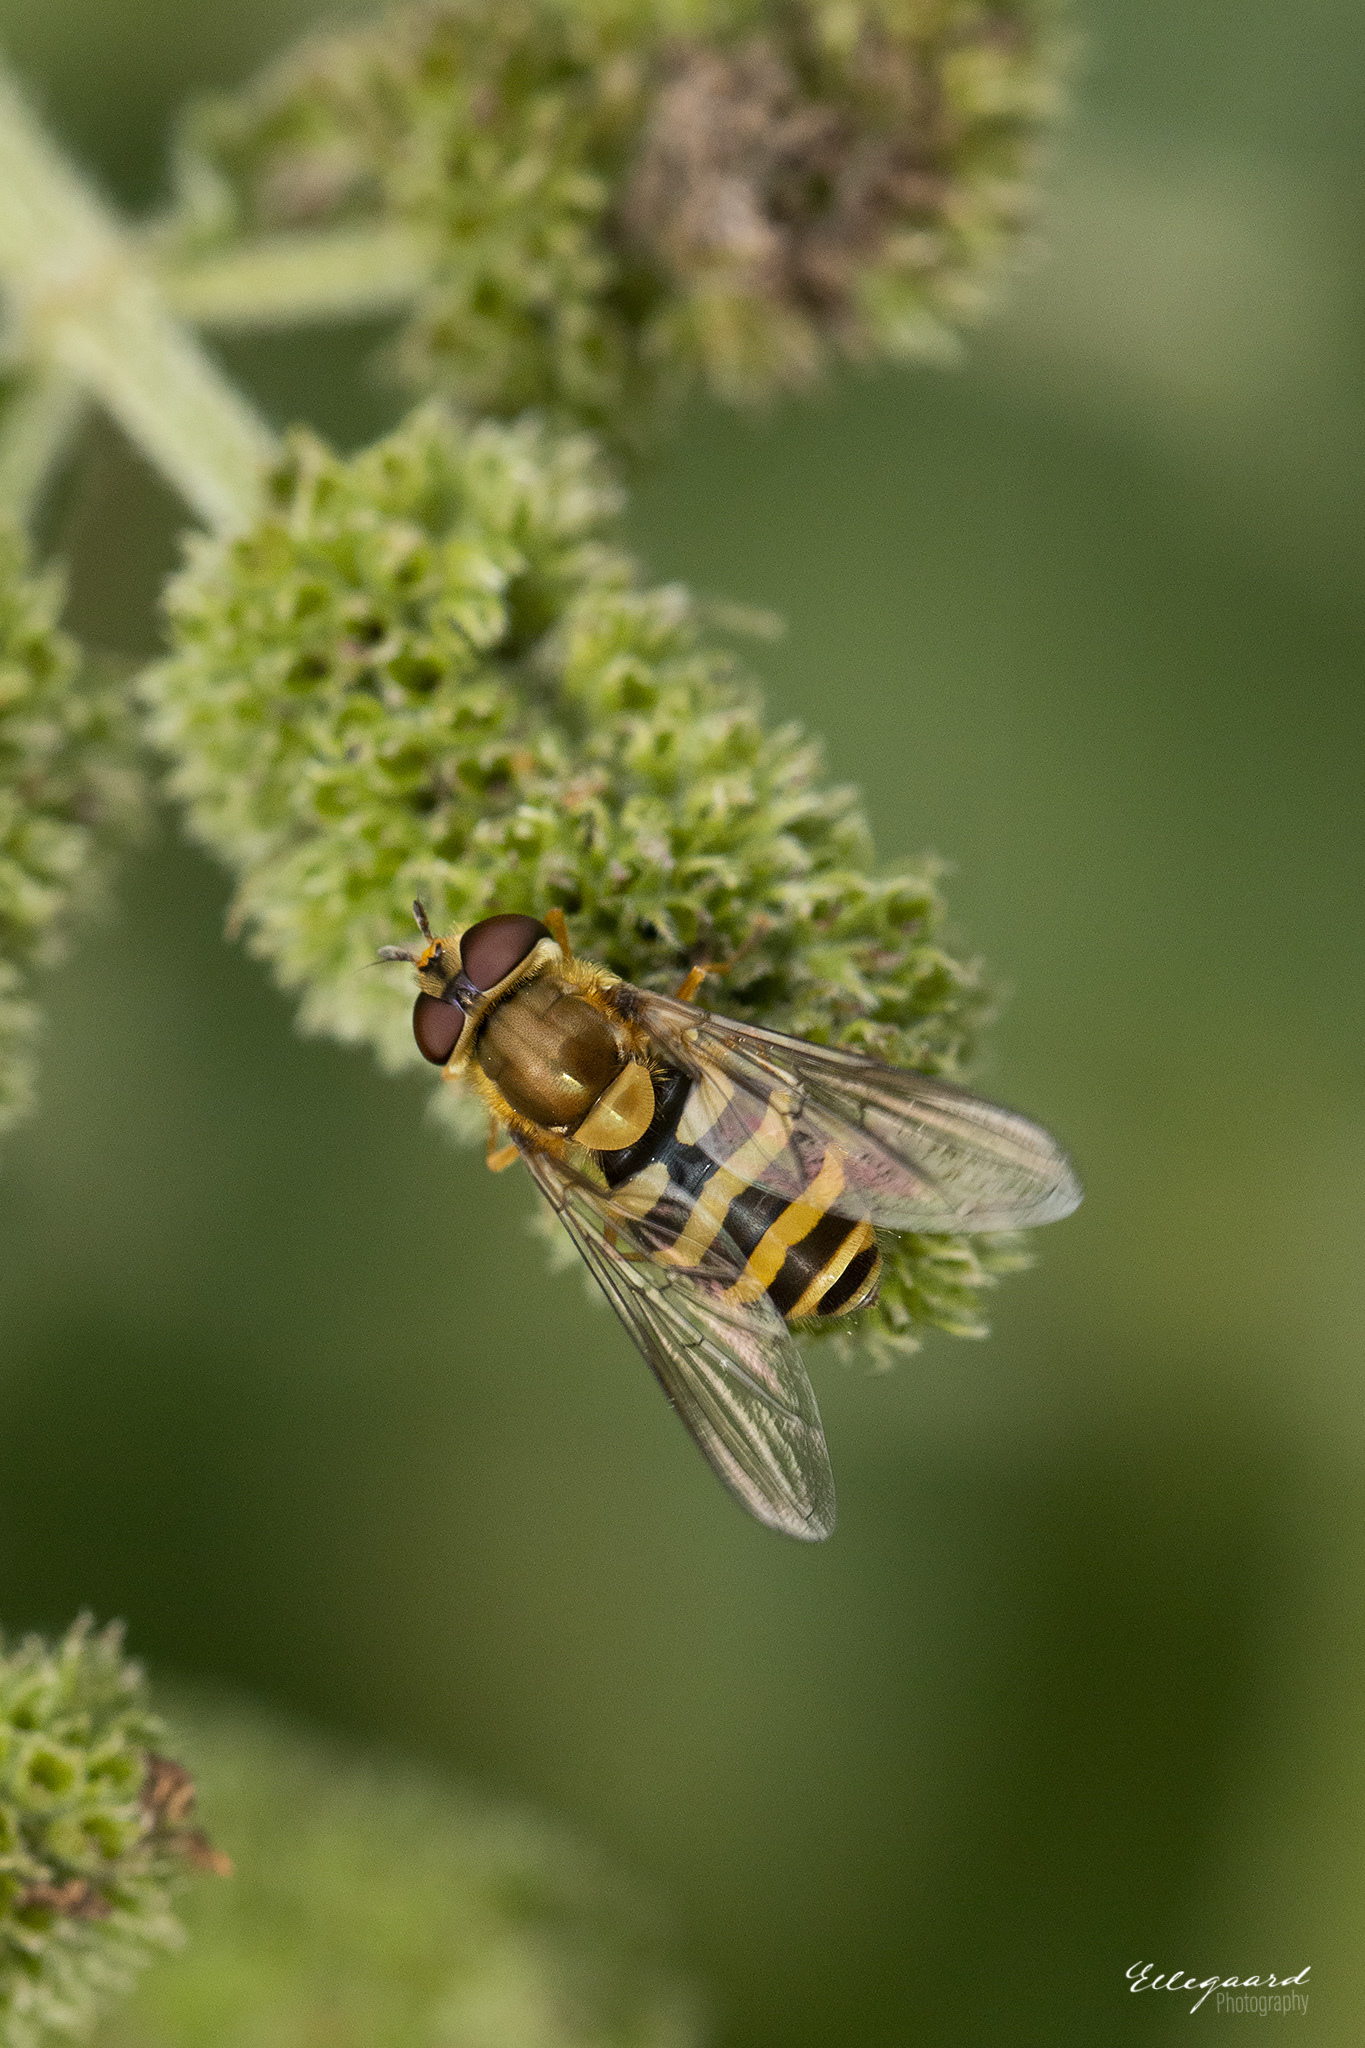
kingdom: Animalia
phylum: Arthropoda
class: Insecta
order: Diptera
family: Syrphidae
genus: Syrphus
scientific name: Syrphus
